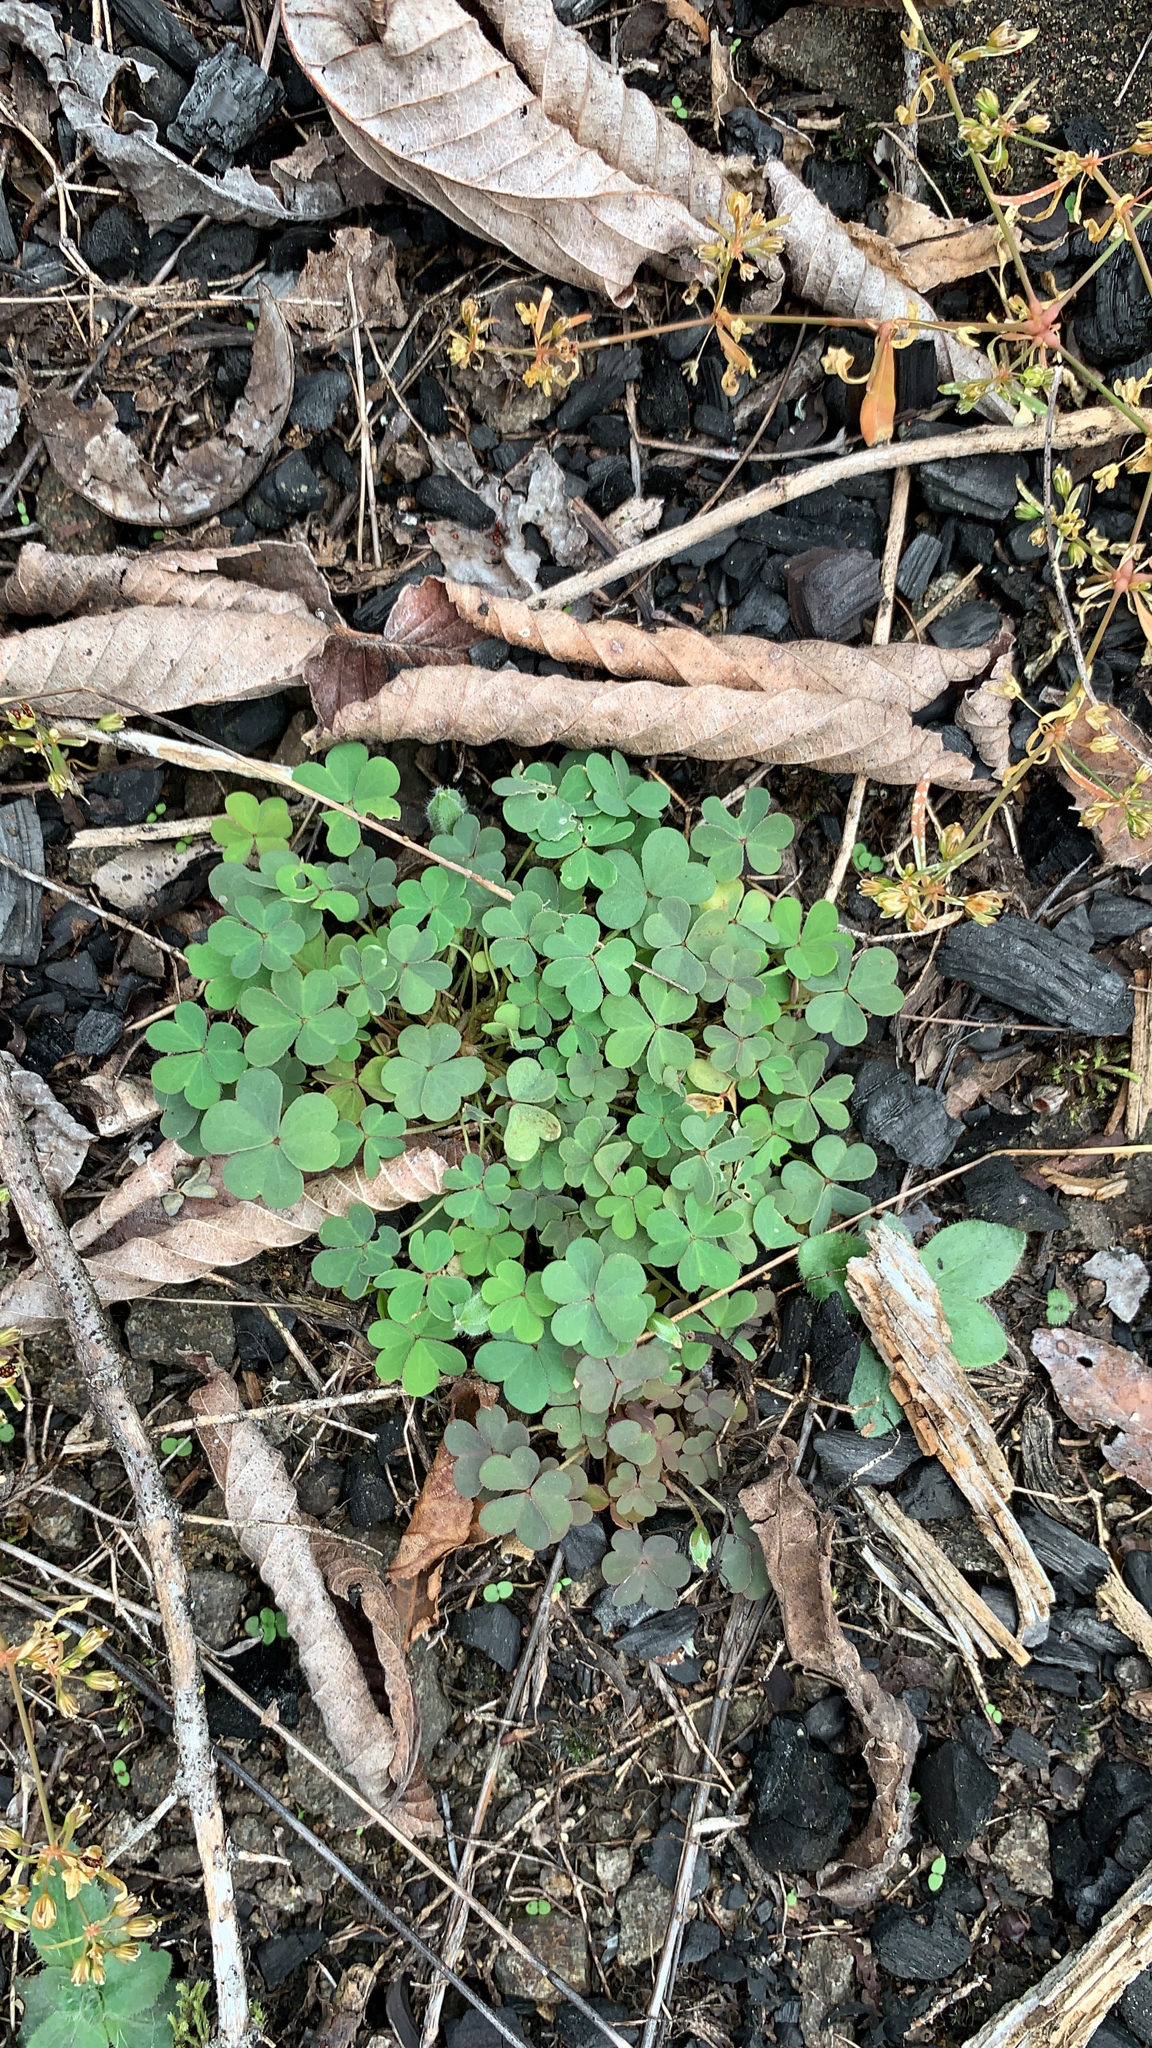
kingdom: Plantae
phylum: Tracheophyta
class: Magnoliopsida
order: Oxalidales
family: Oxalidaceae
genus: Oxalis
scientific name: Oxalis corniculata
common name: Procumbent yellow-sorrel
